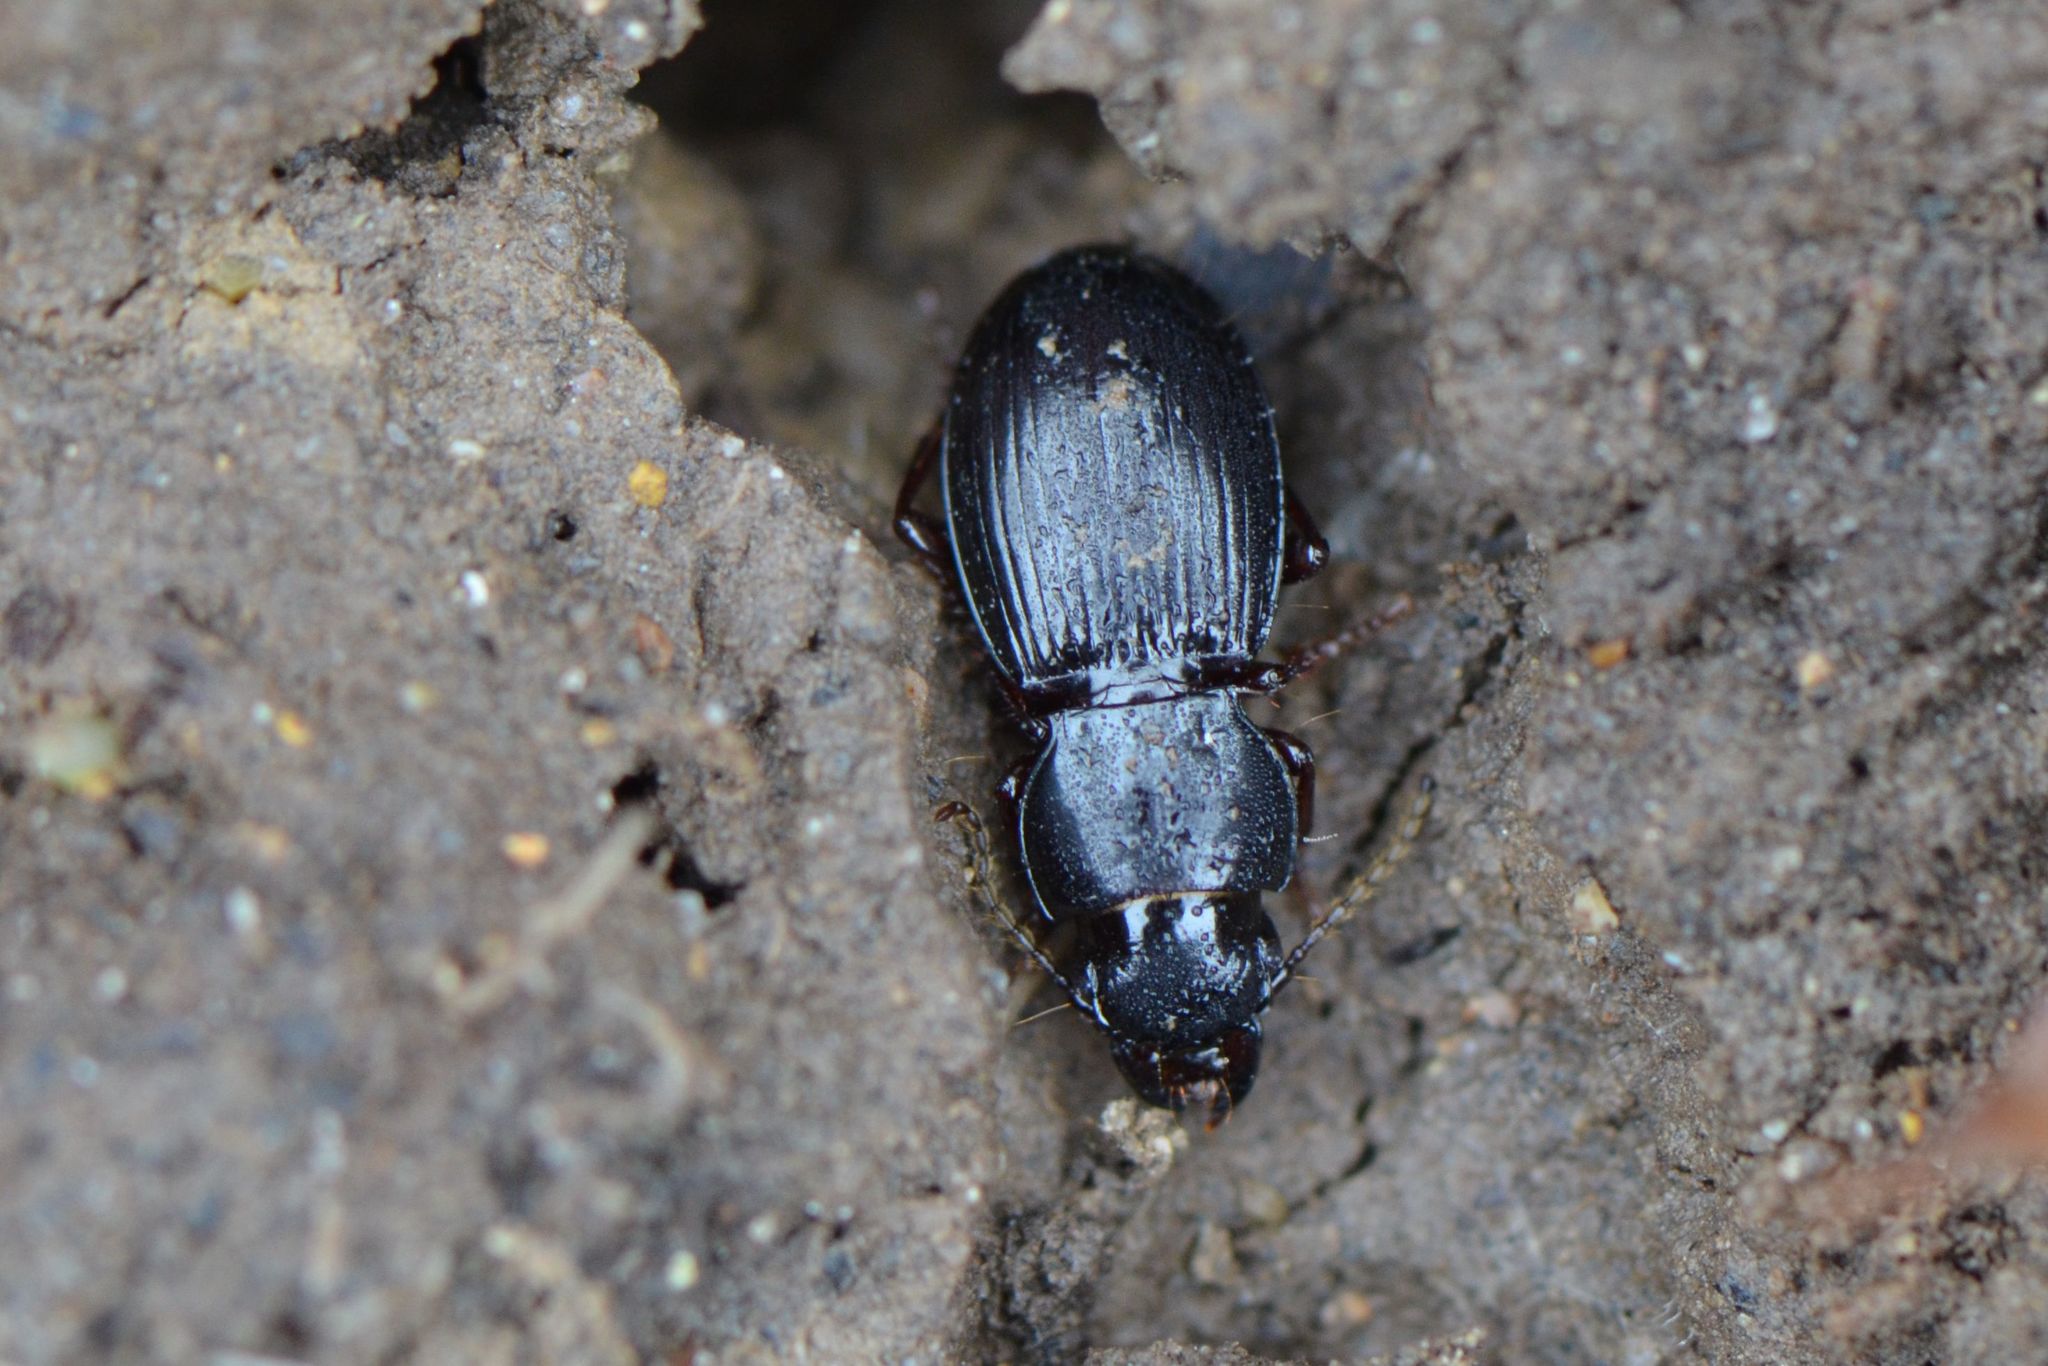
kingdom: Animalia
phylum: Arthropoda
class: Insecta
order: Coleoptera
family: Carabidae
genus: Molops
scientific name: Molops piceus
